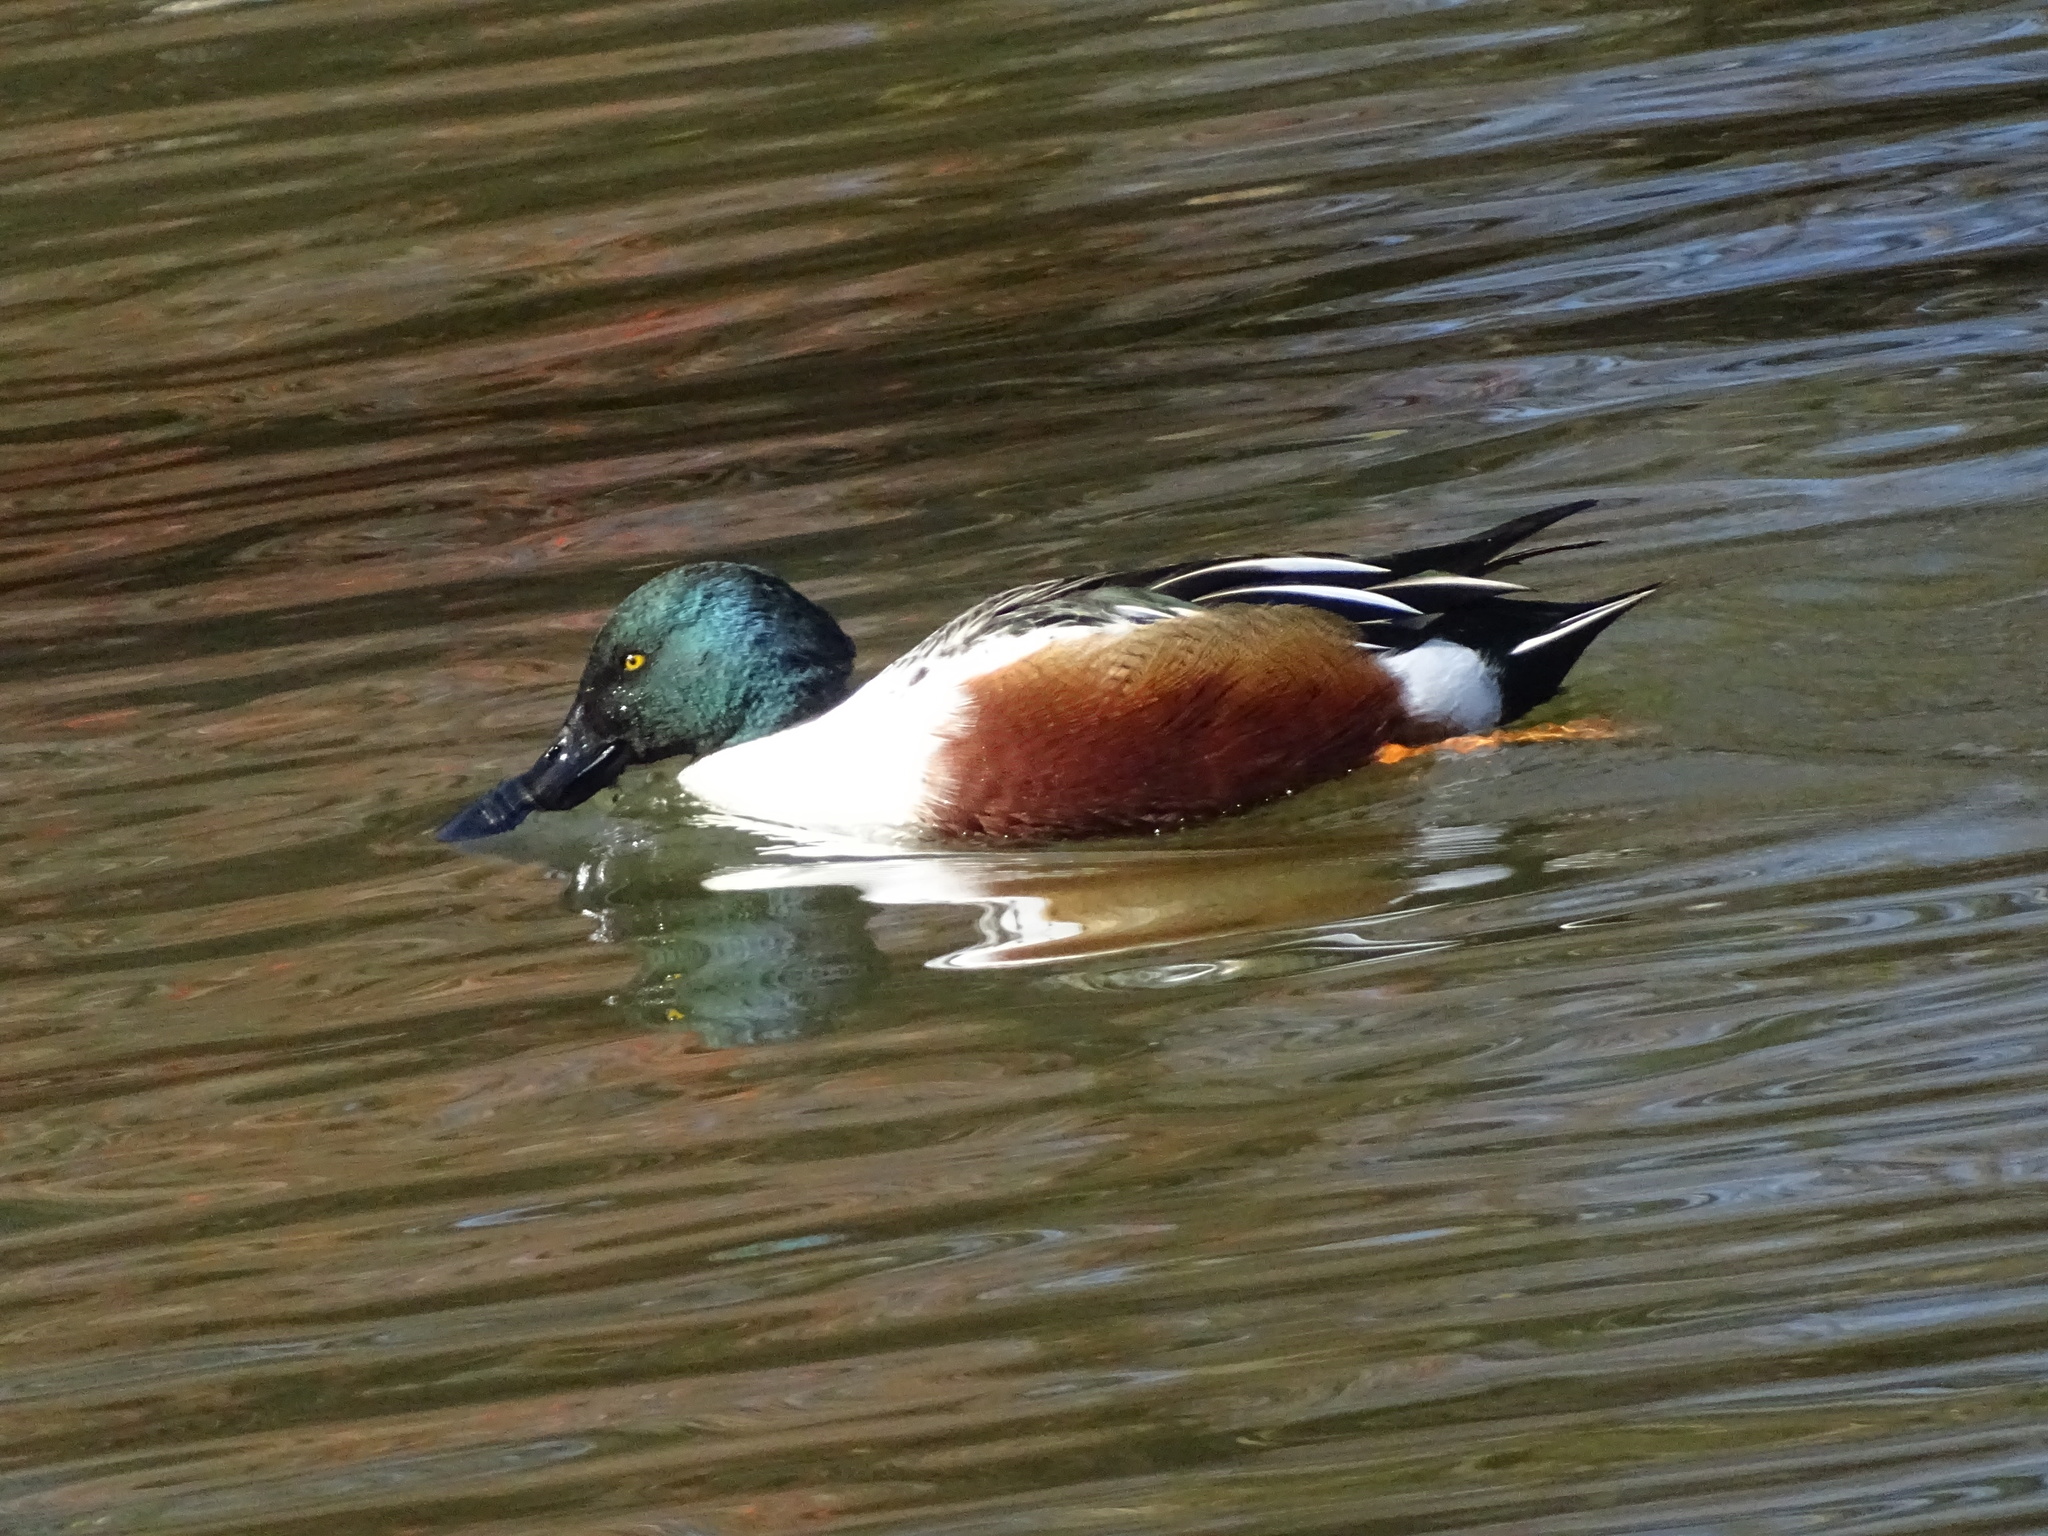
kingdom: Animalia
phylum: Chordata
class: Aves
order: Anseriformes
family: Anatidae
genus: Spatula
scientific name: Spatula clypeata
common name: Northern shoveler
